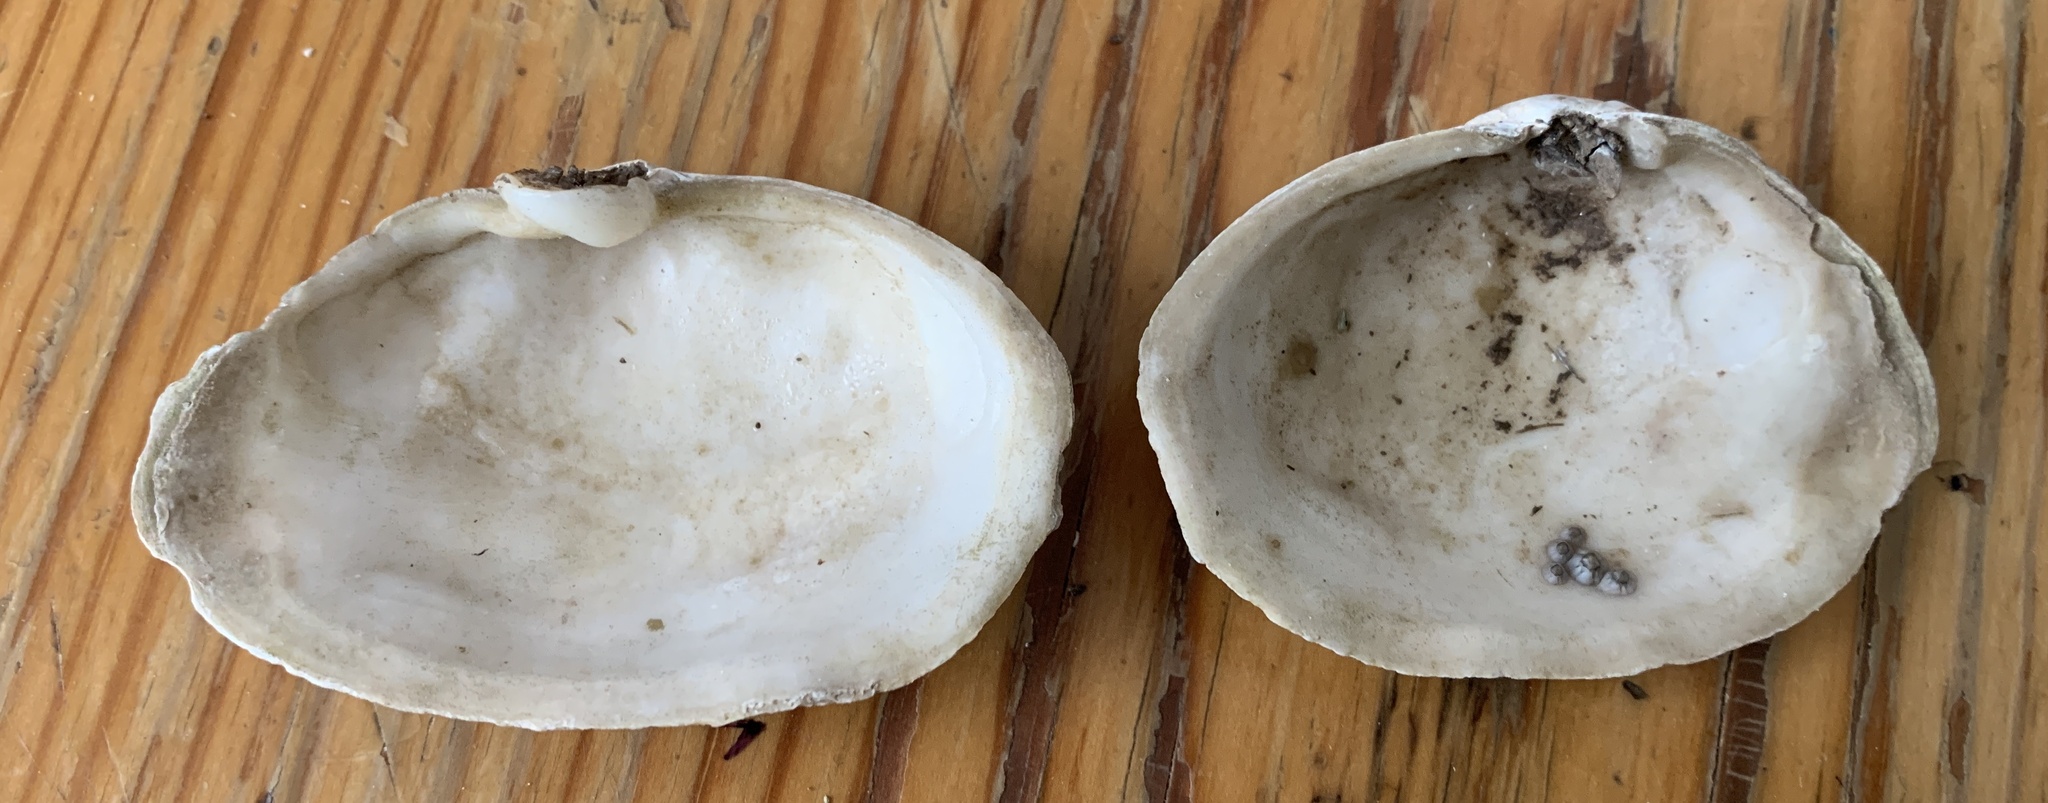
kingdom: Animalia
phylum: Mollusca
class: Bivalvia
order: Myida
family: Myidae
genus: Mya
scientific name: Mya arenaria
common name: Soft-shelled clam
